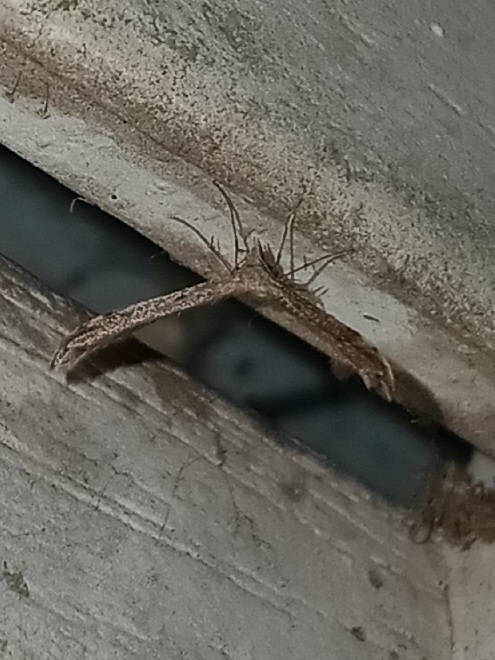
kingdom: Animalia
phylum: Arthropoda
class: Insecta
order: Lepidoptera
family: Pterophoridae
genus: Lioptilodes
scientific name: Lioptilodes albistriolatus
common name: Moth
